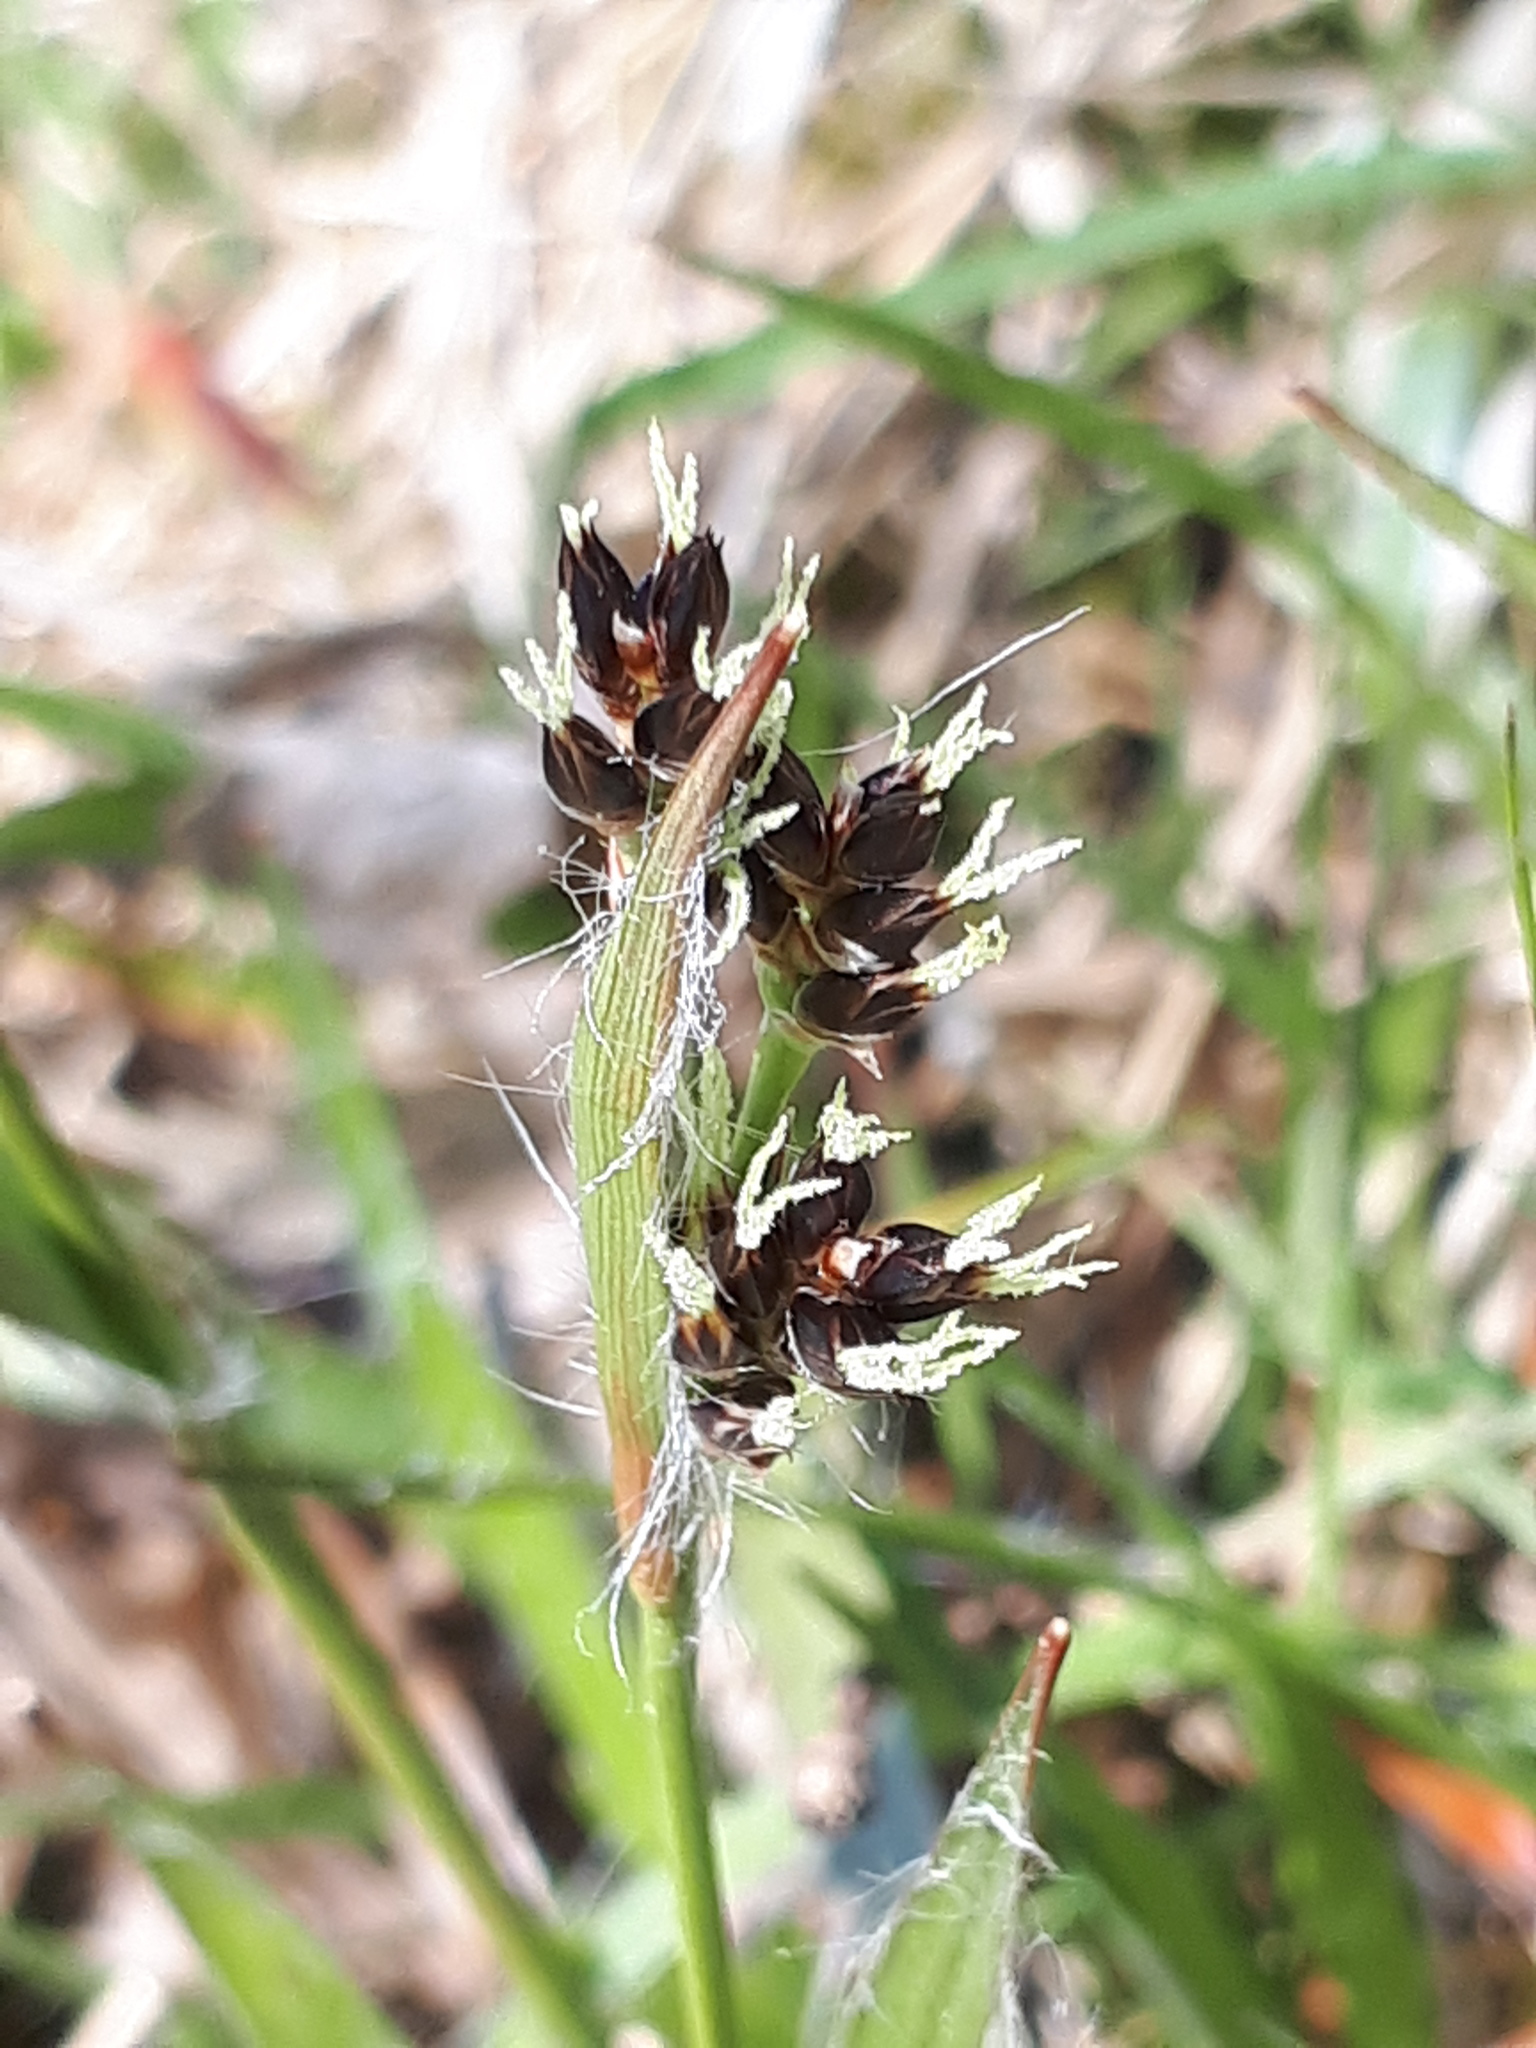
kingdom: Plantae
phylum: Tracheophyta
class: Liliopsida
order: Poales
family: Juncaceae
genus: Luzula
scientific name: Luzula campestris
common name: Field wood-rush
